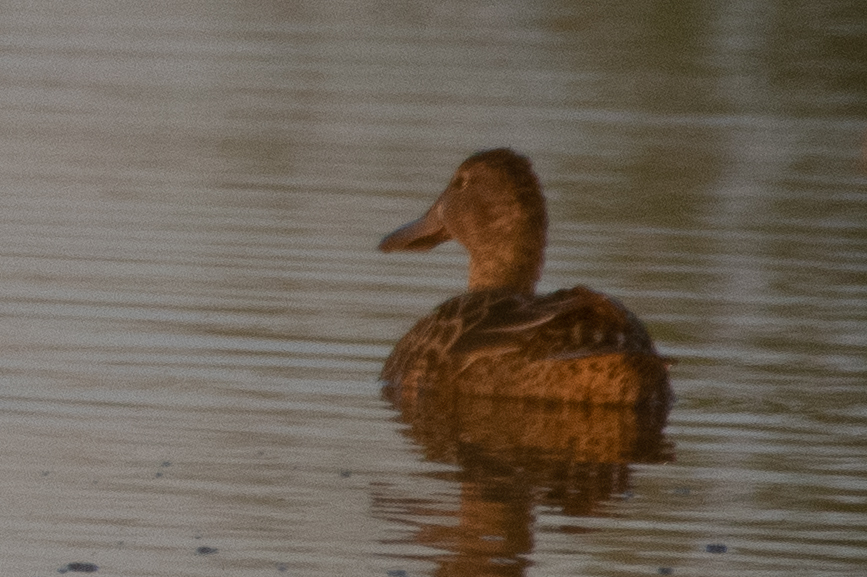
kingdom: Animalia
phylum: Chordata
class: Aves
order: Anseriformes
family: Anatidae
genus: Spatula
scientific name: Spatula clypeata
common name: Northern shoveler
